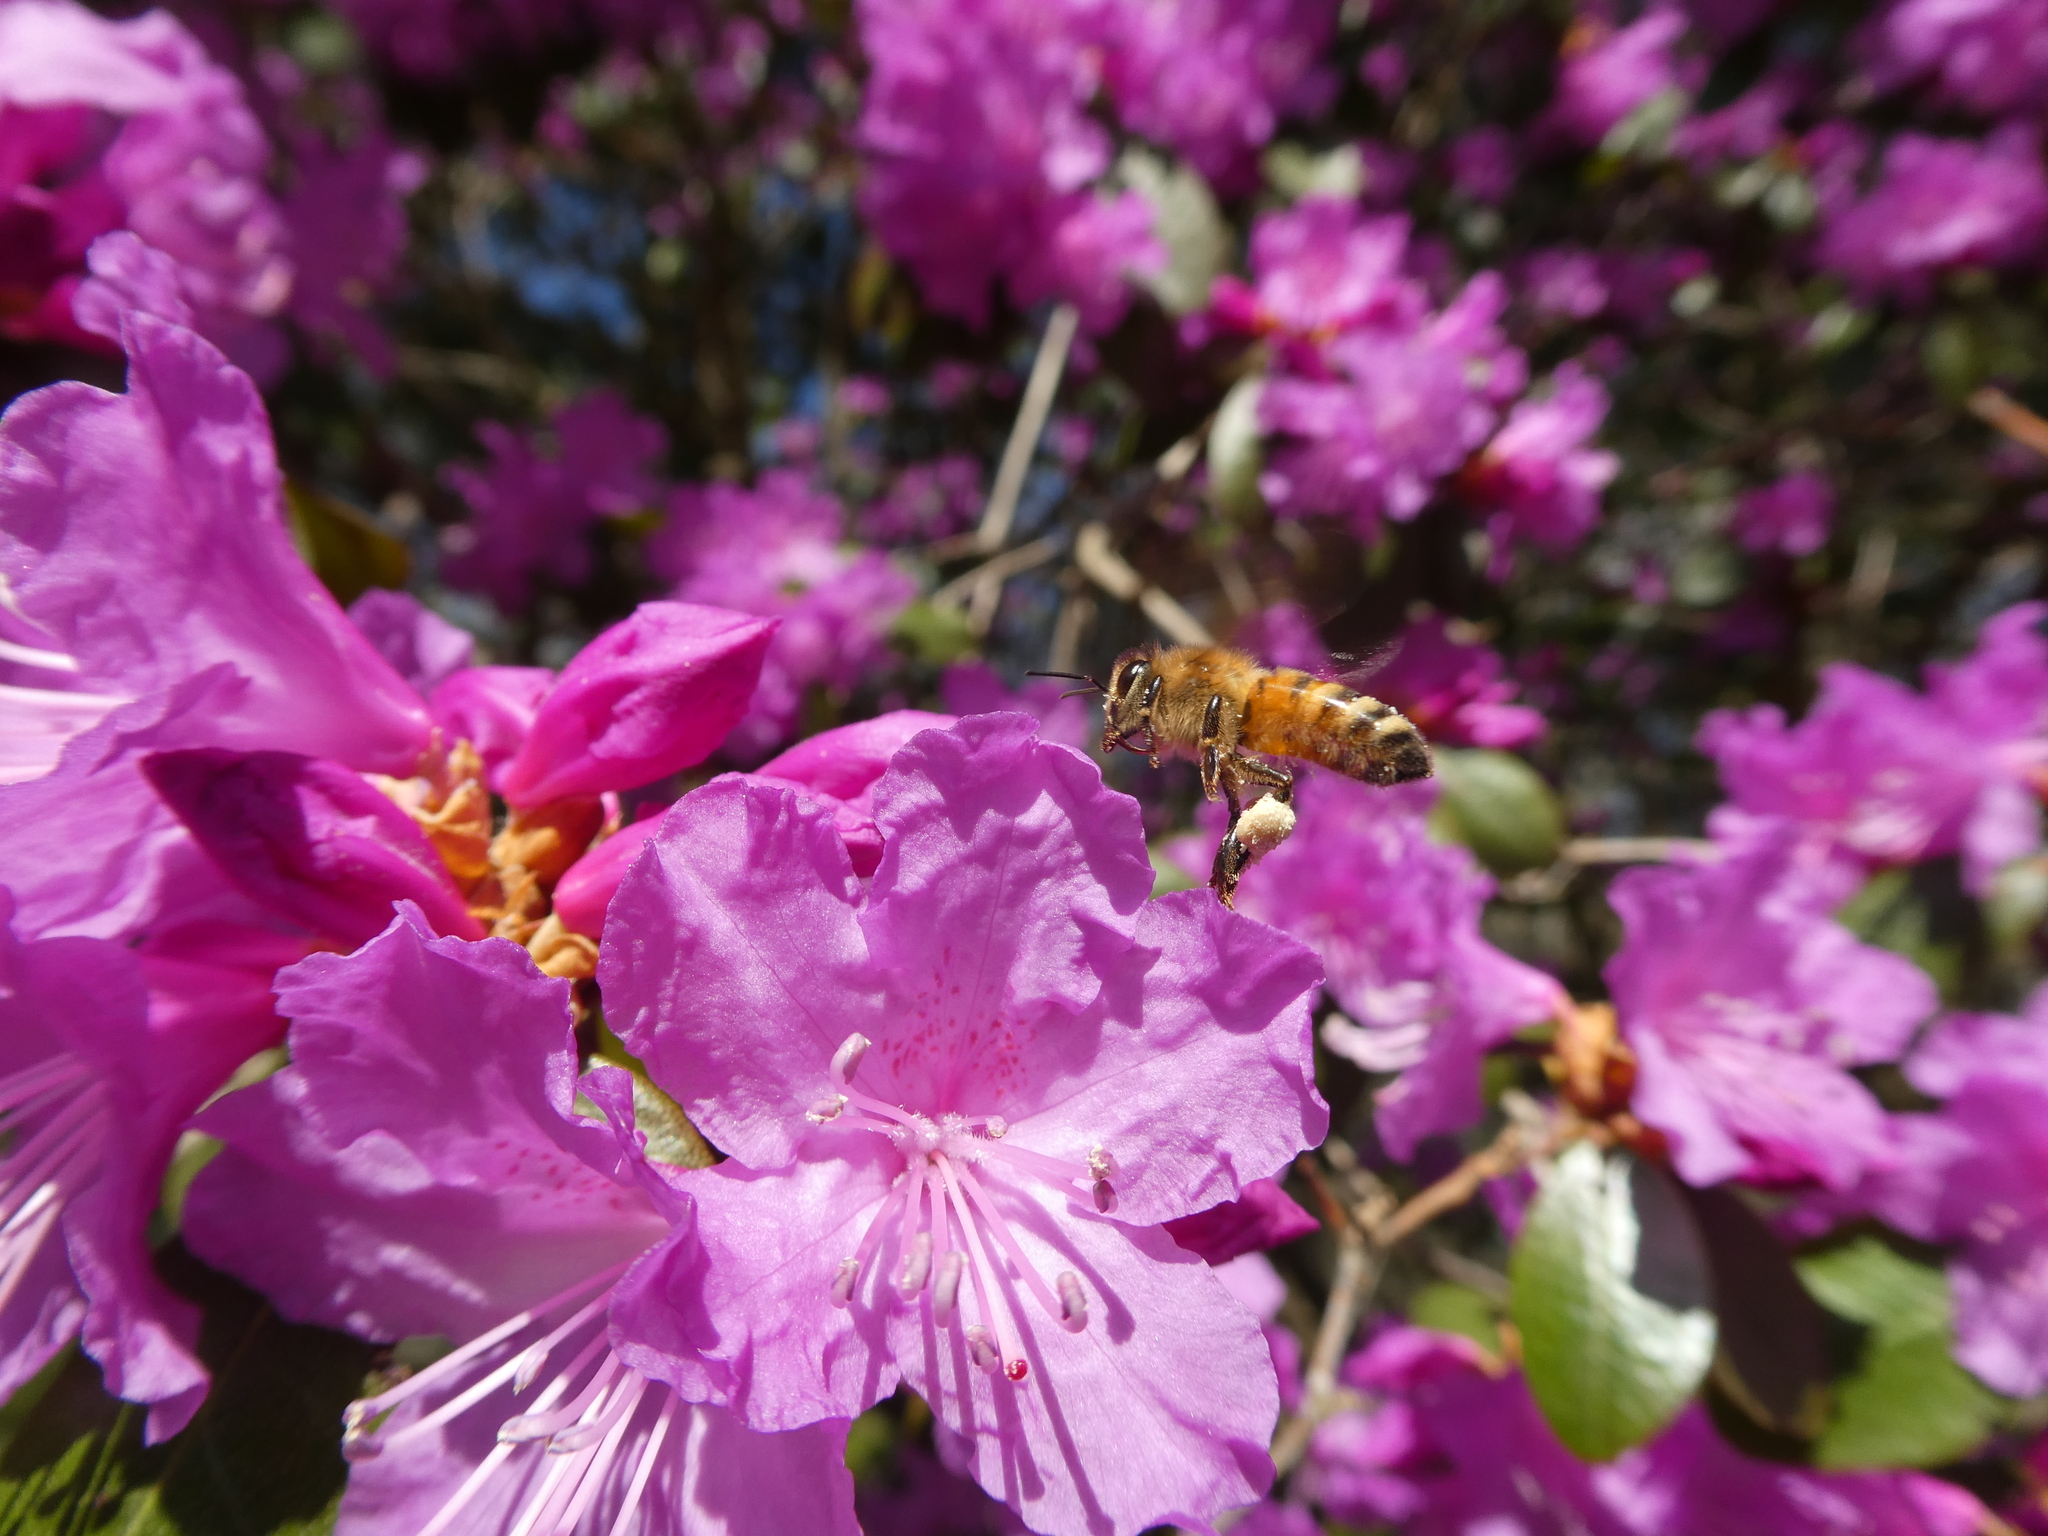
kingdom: Animalia
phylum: Arthropoda
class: Insecta
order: Hymenoptera
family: Apidae
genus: Apis
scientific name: Apis mellifera
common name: Honey bee
